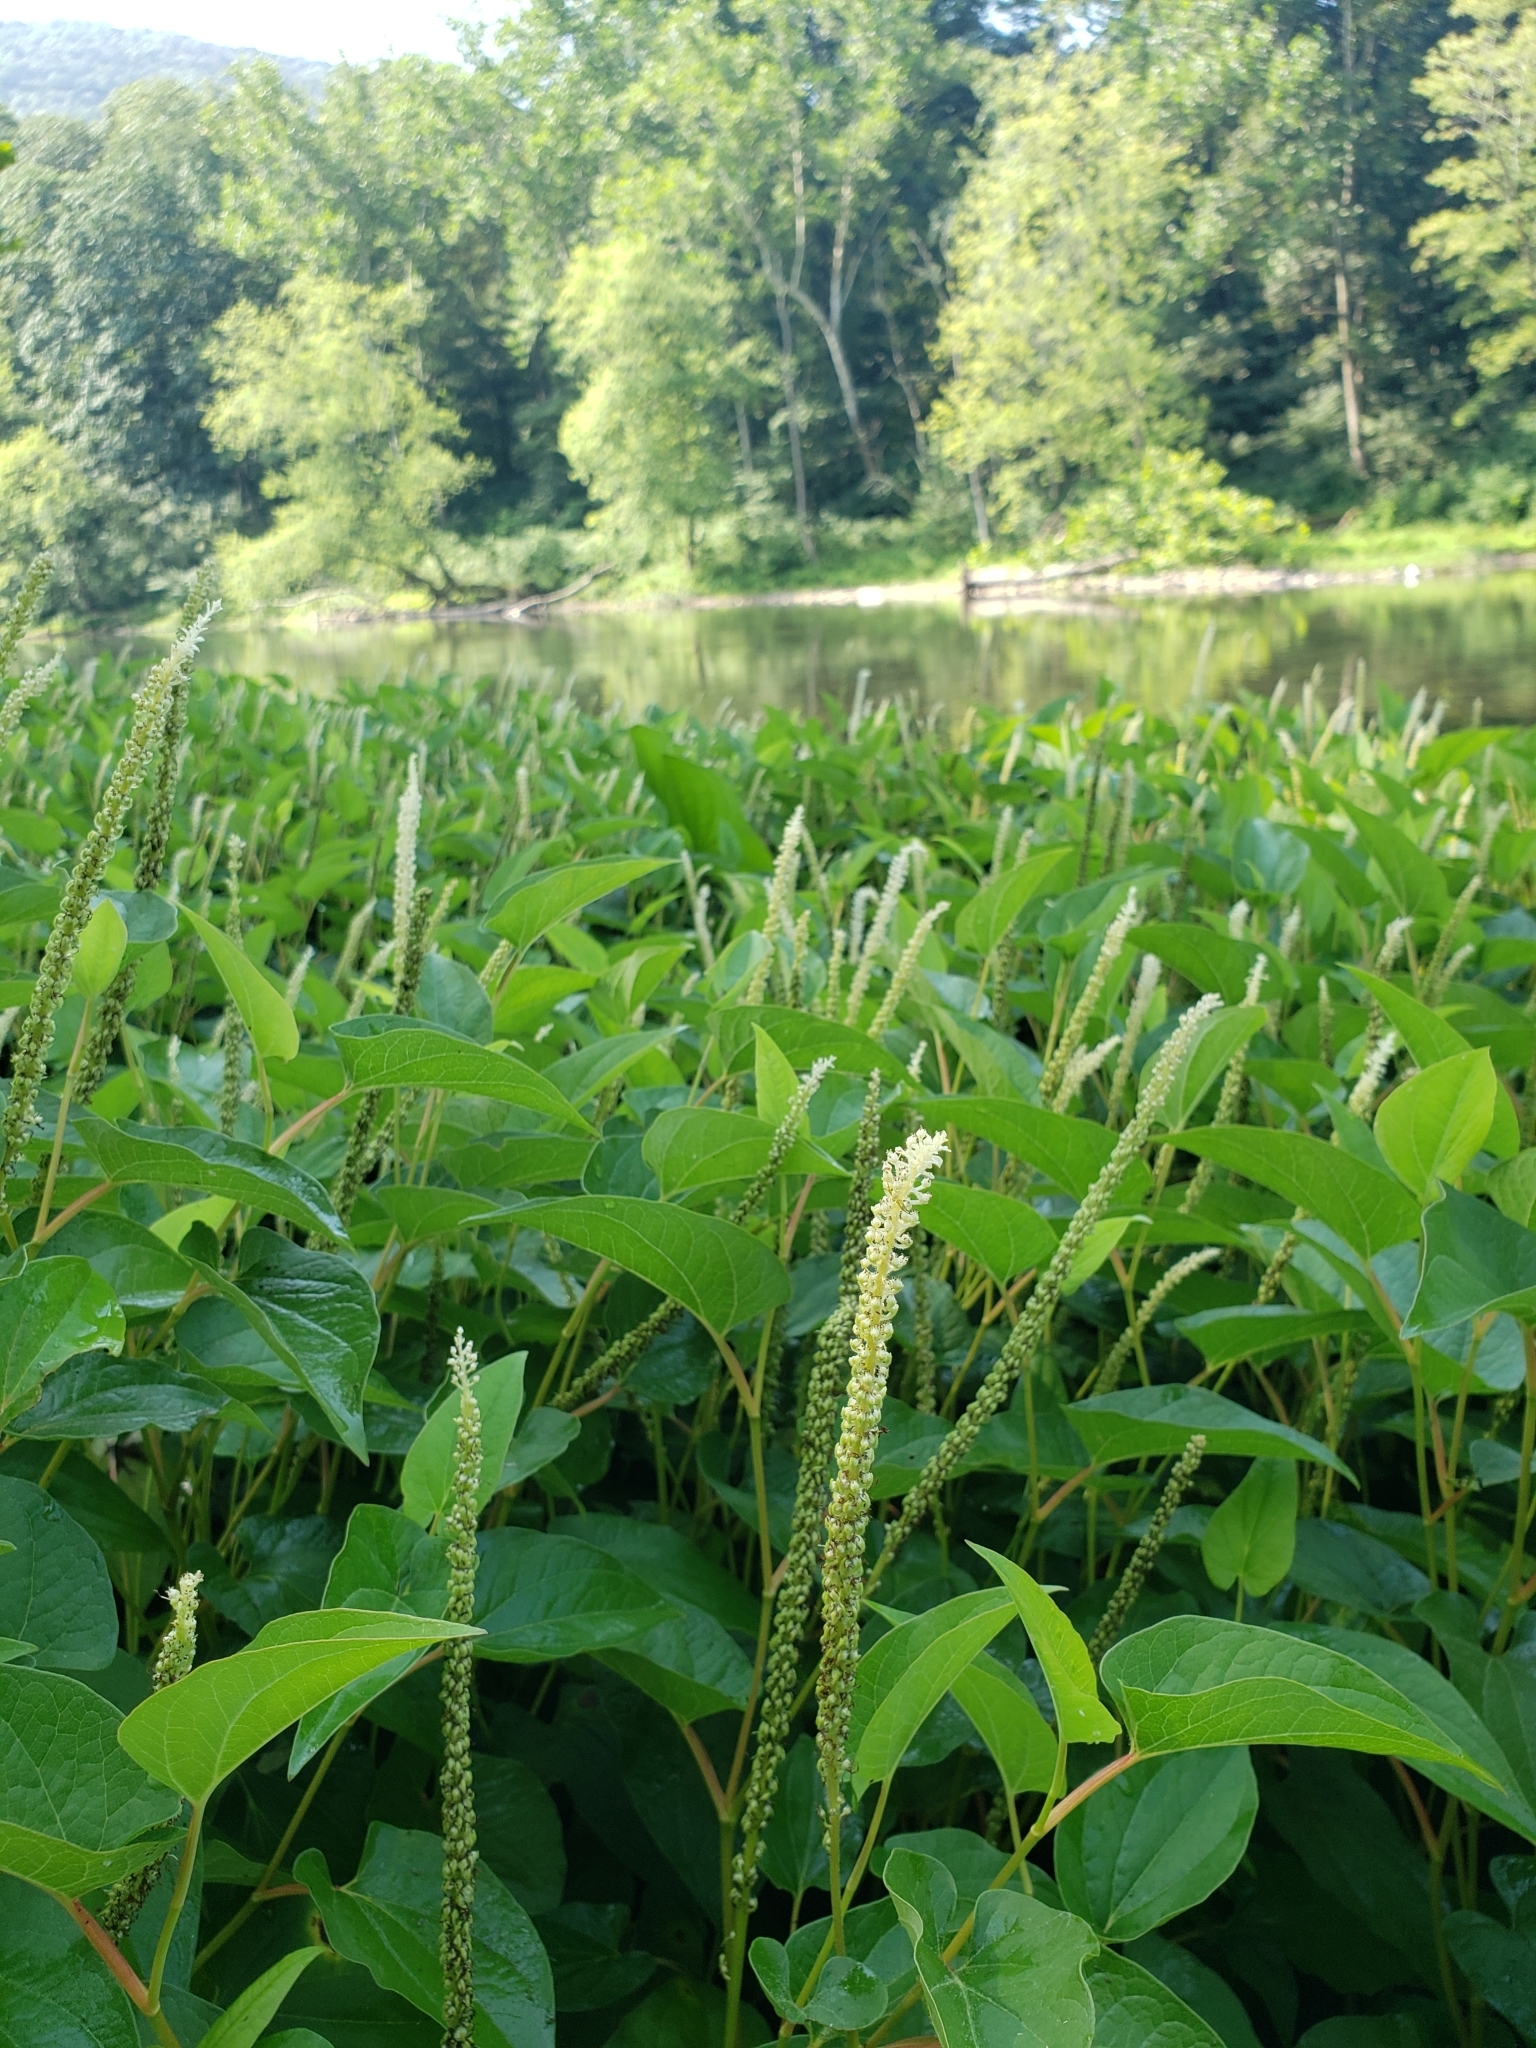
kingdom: Plantae
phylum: Tracheophyta
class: Magnoliopsida
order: Piperales
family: Saururaceae
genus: Saururus
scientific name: Saururus cernuus
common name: Lizard's-tail
